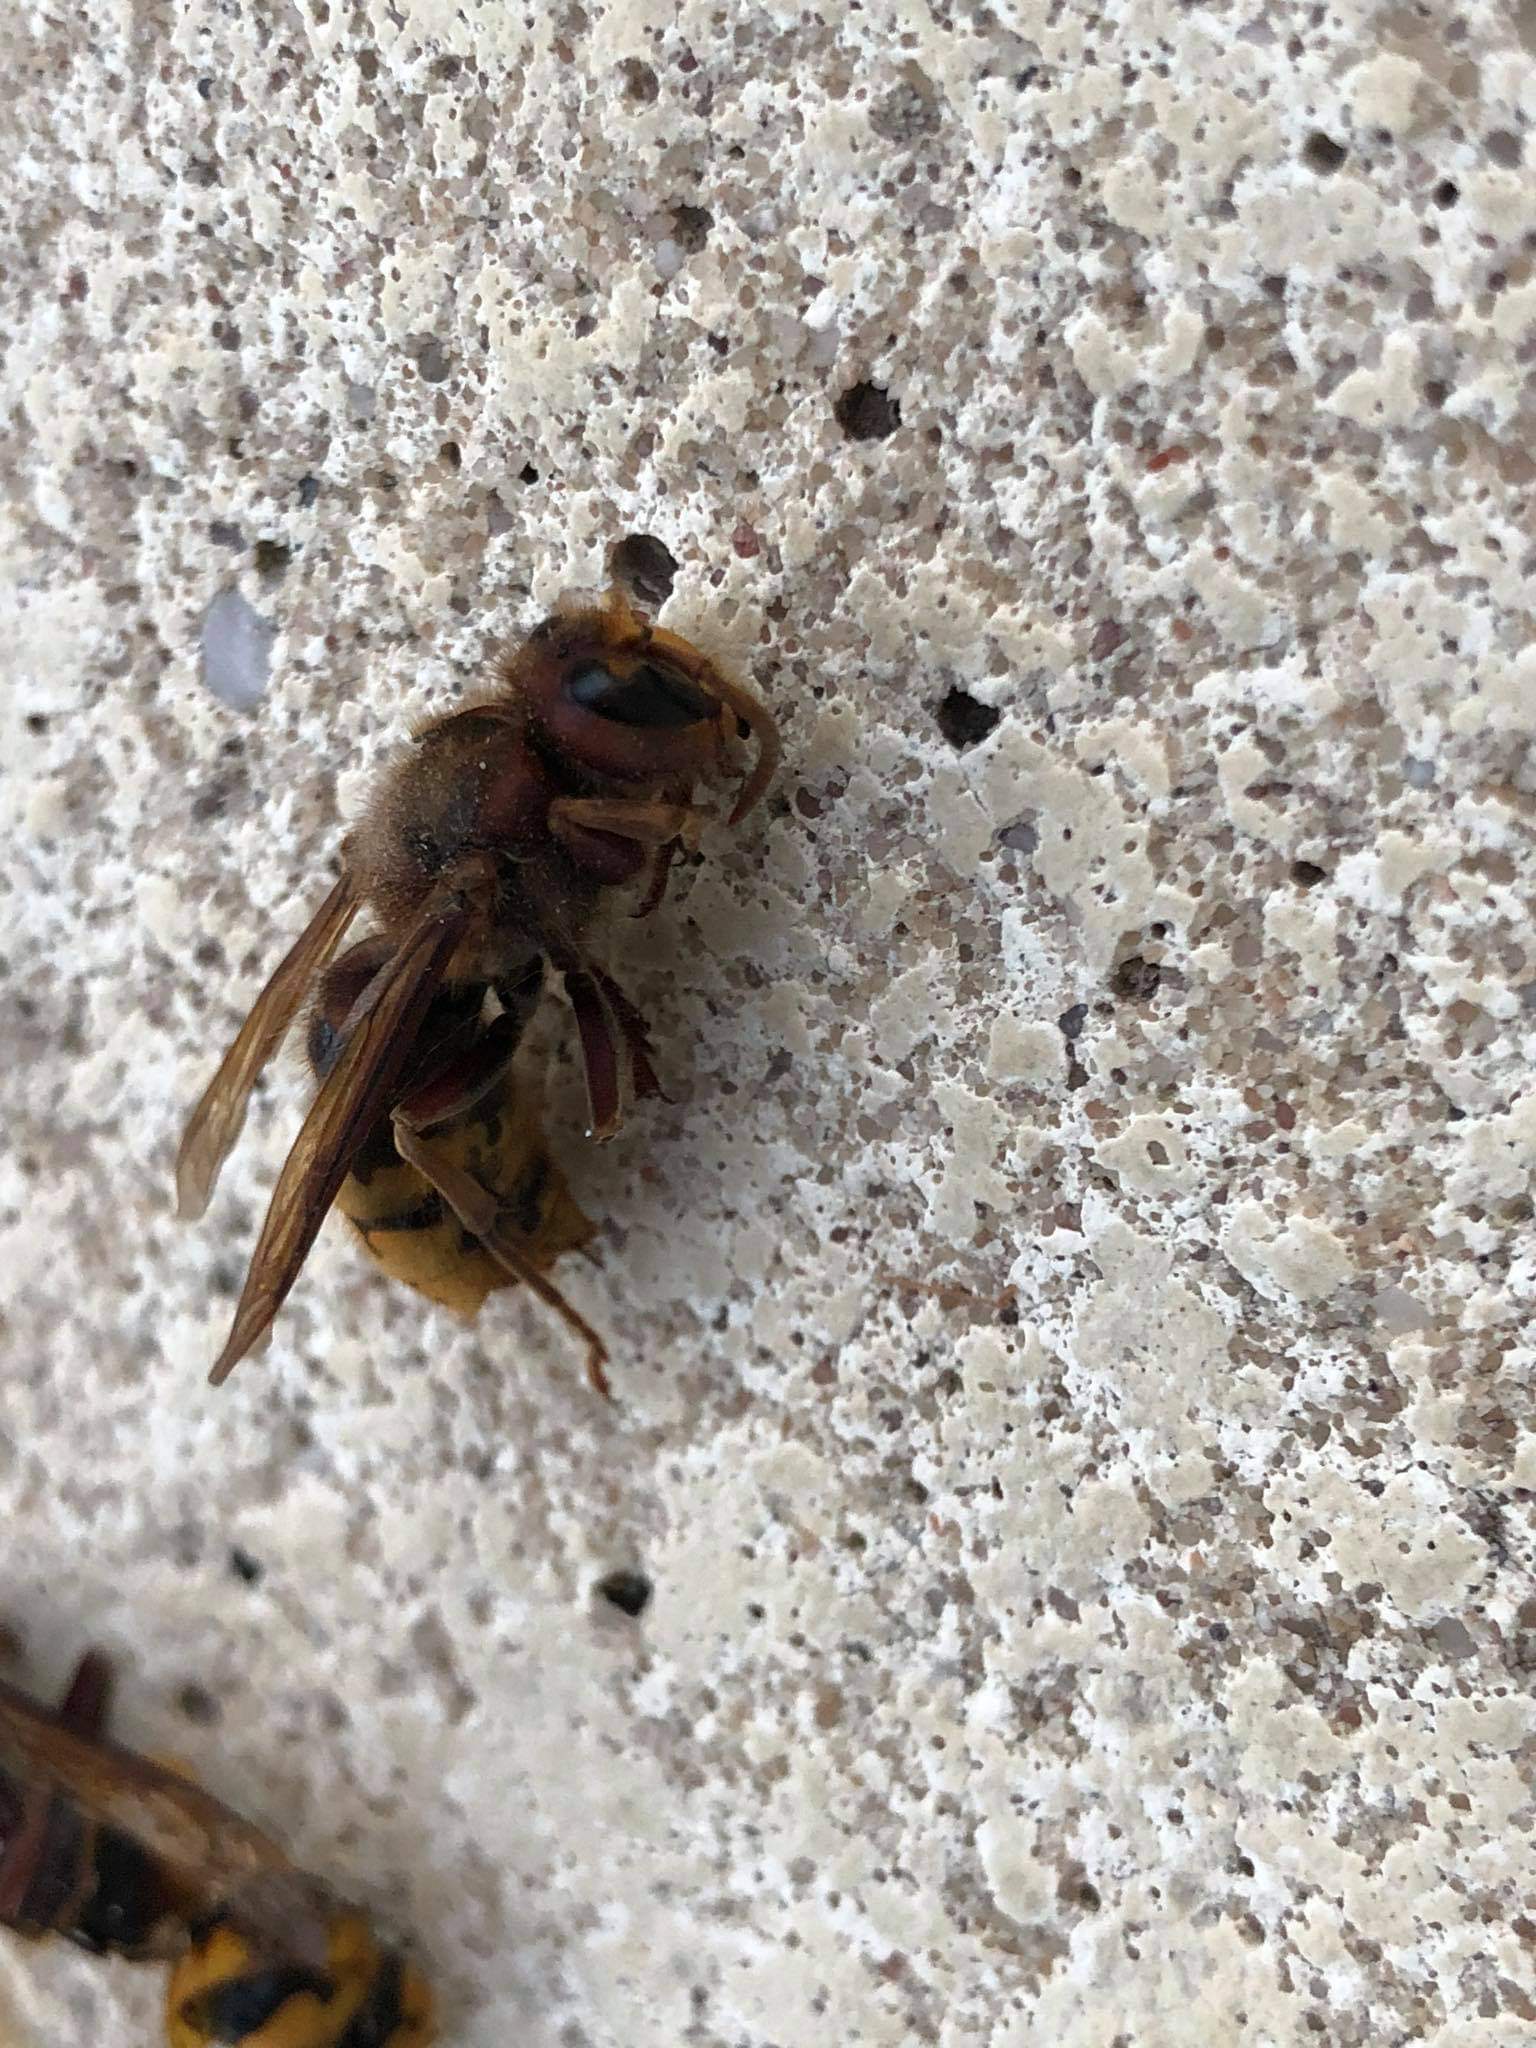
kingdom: Animalia
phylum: Arthropoda
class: Insecta
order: Hymenoptera
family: Vespidae
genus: Vespa
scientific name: Vespa crabro
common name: Hornet
